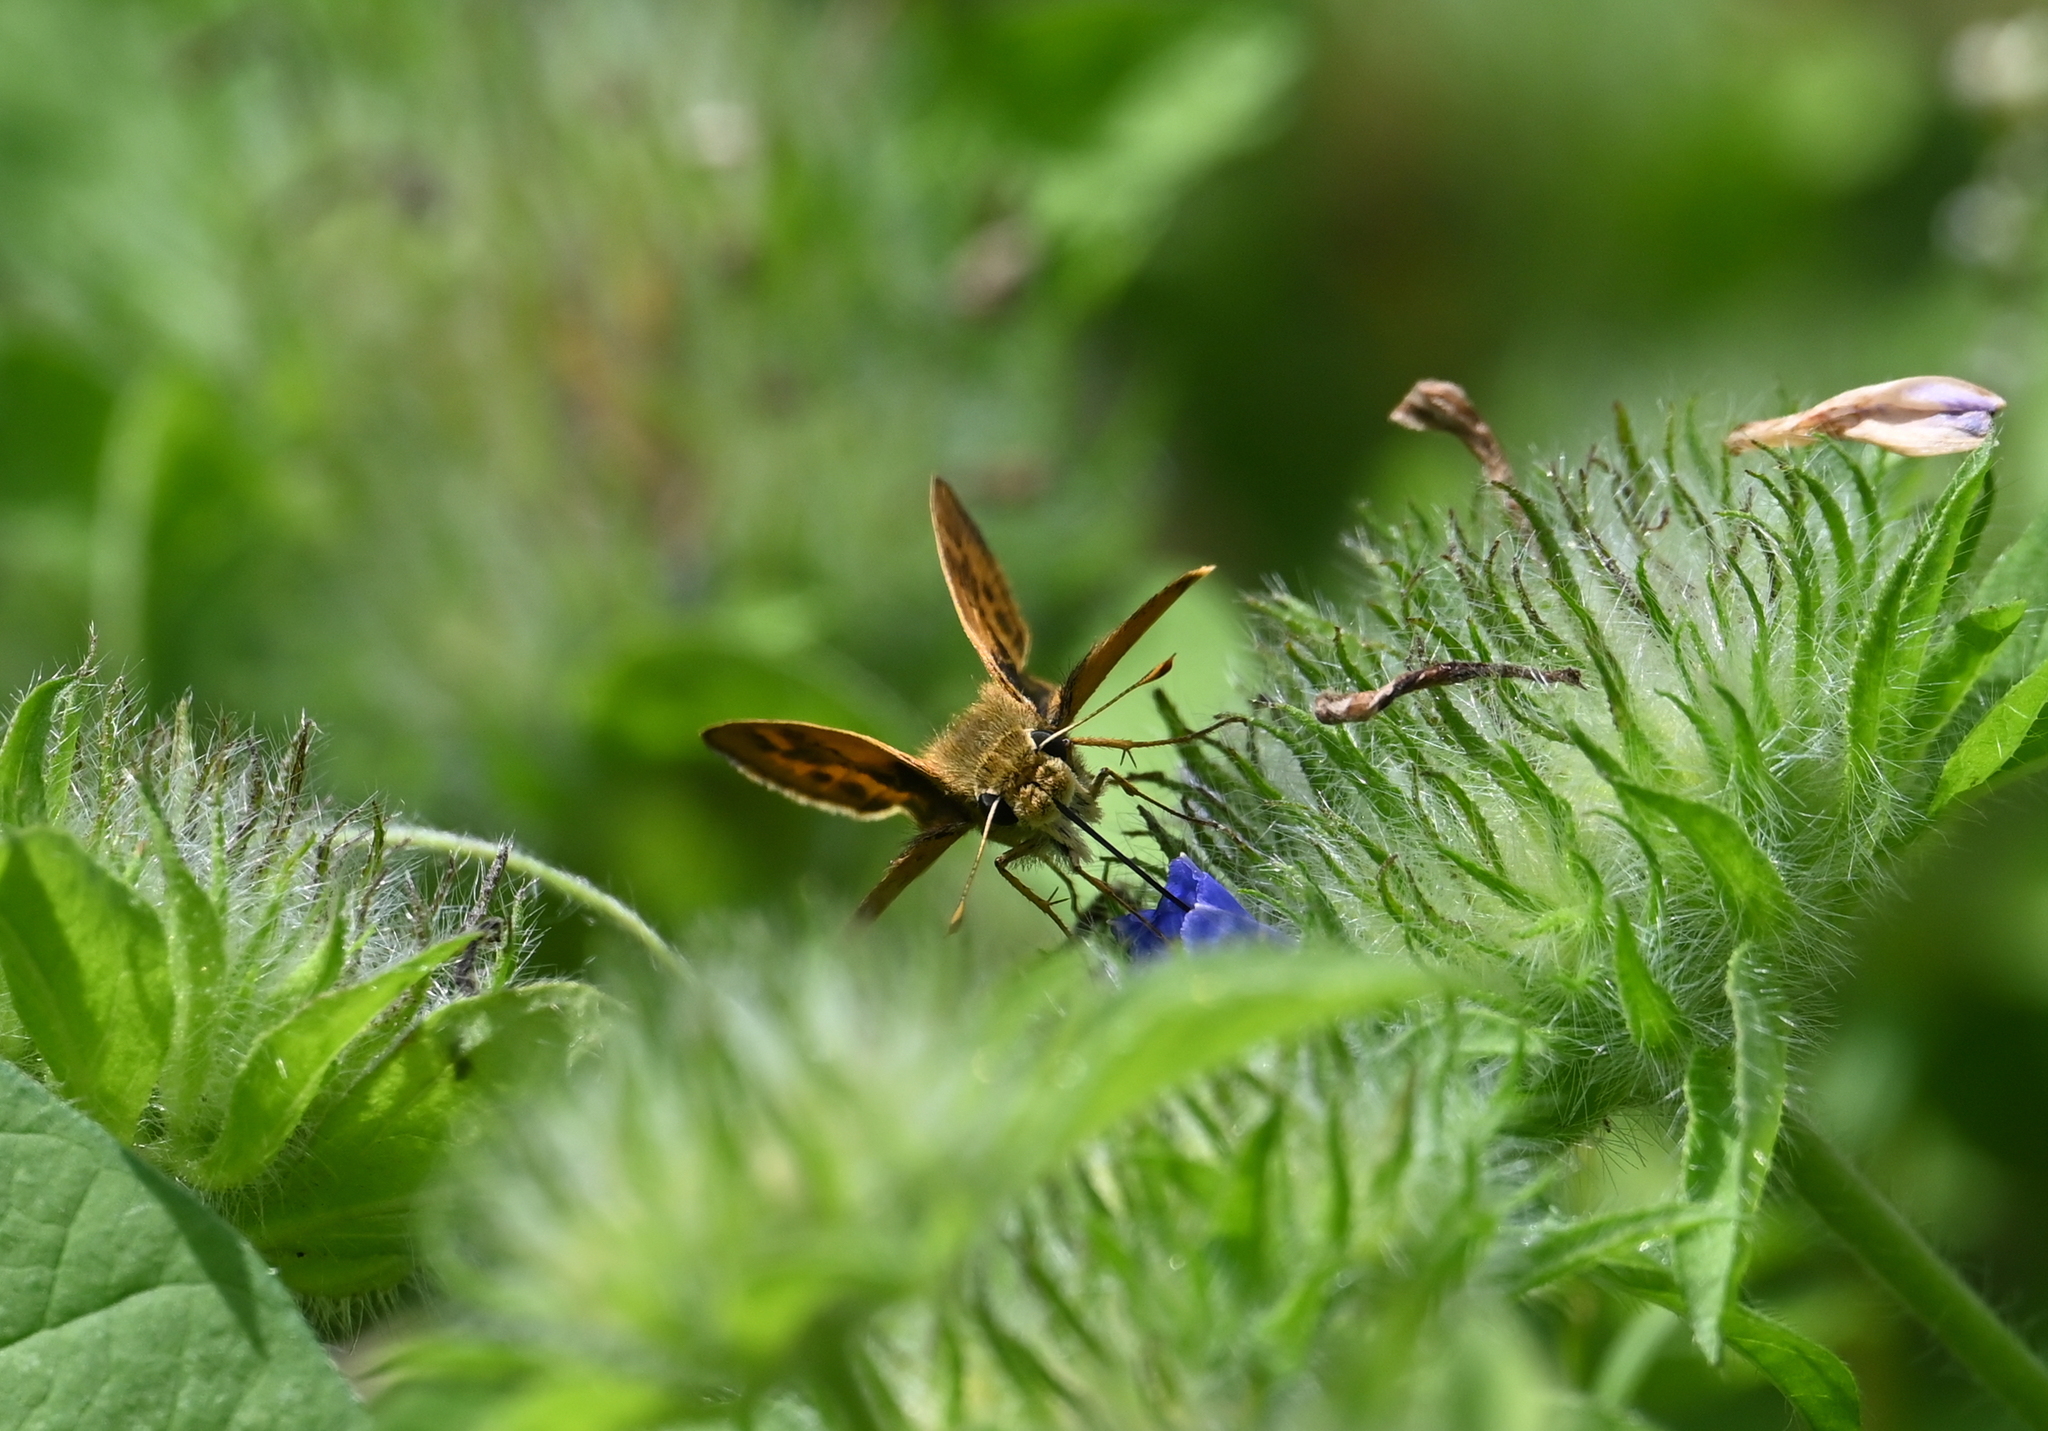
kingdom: Animalia
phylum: Arthropoda
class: Insecta
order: Lepidoptera
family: Hesperiidae
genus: Polites
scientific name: Polites vibex
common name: Whirlabout
